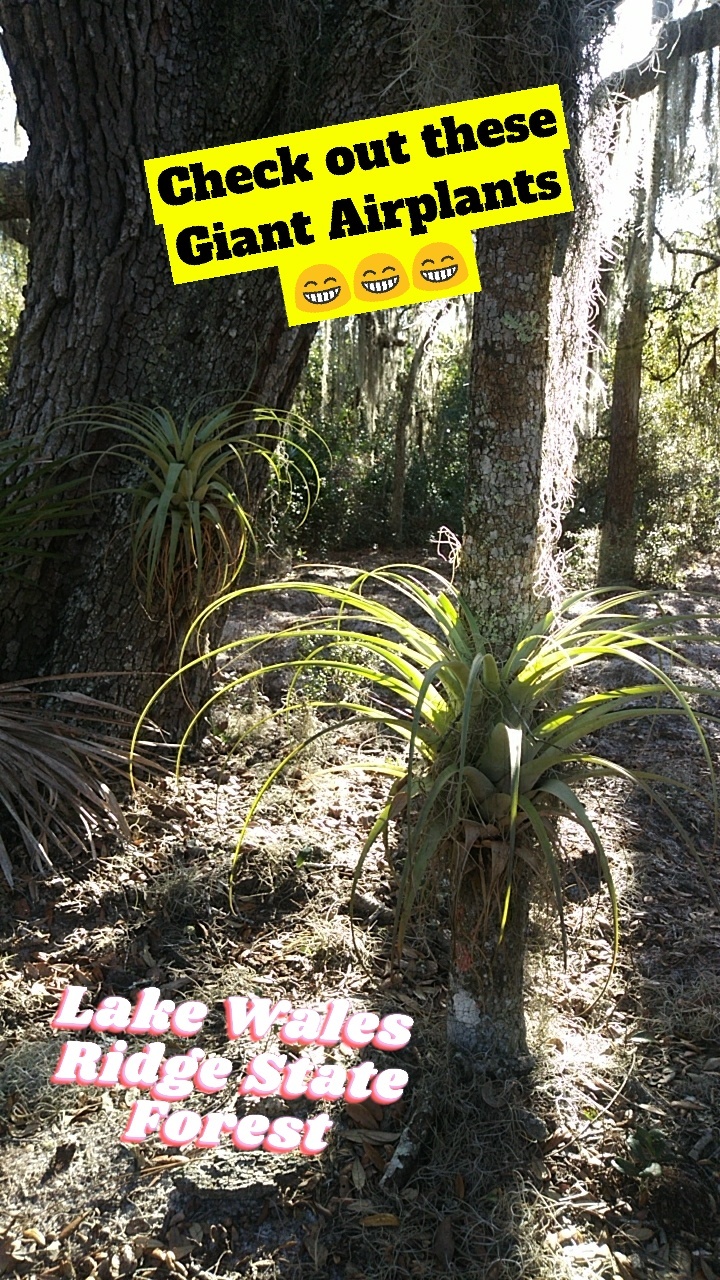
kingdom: Plantae
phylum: Tracheophyta
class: Liliopsida
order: Poales
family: Bromeliaceae
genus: Tillandsia
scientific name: Tillandsia utriculata
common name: Wild pine
